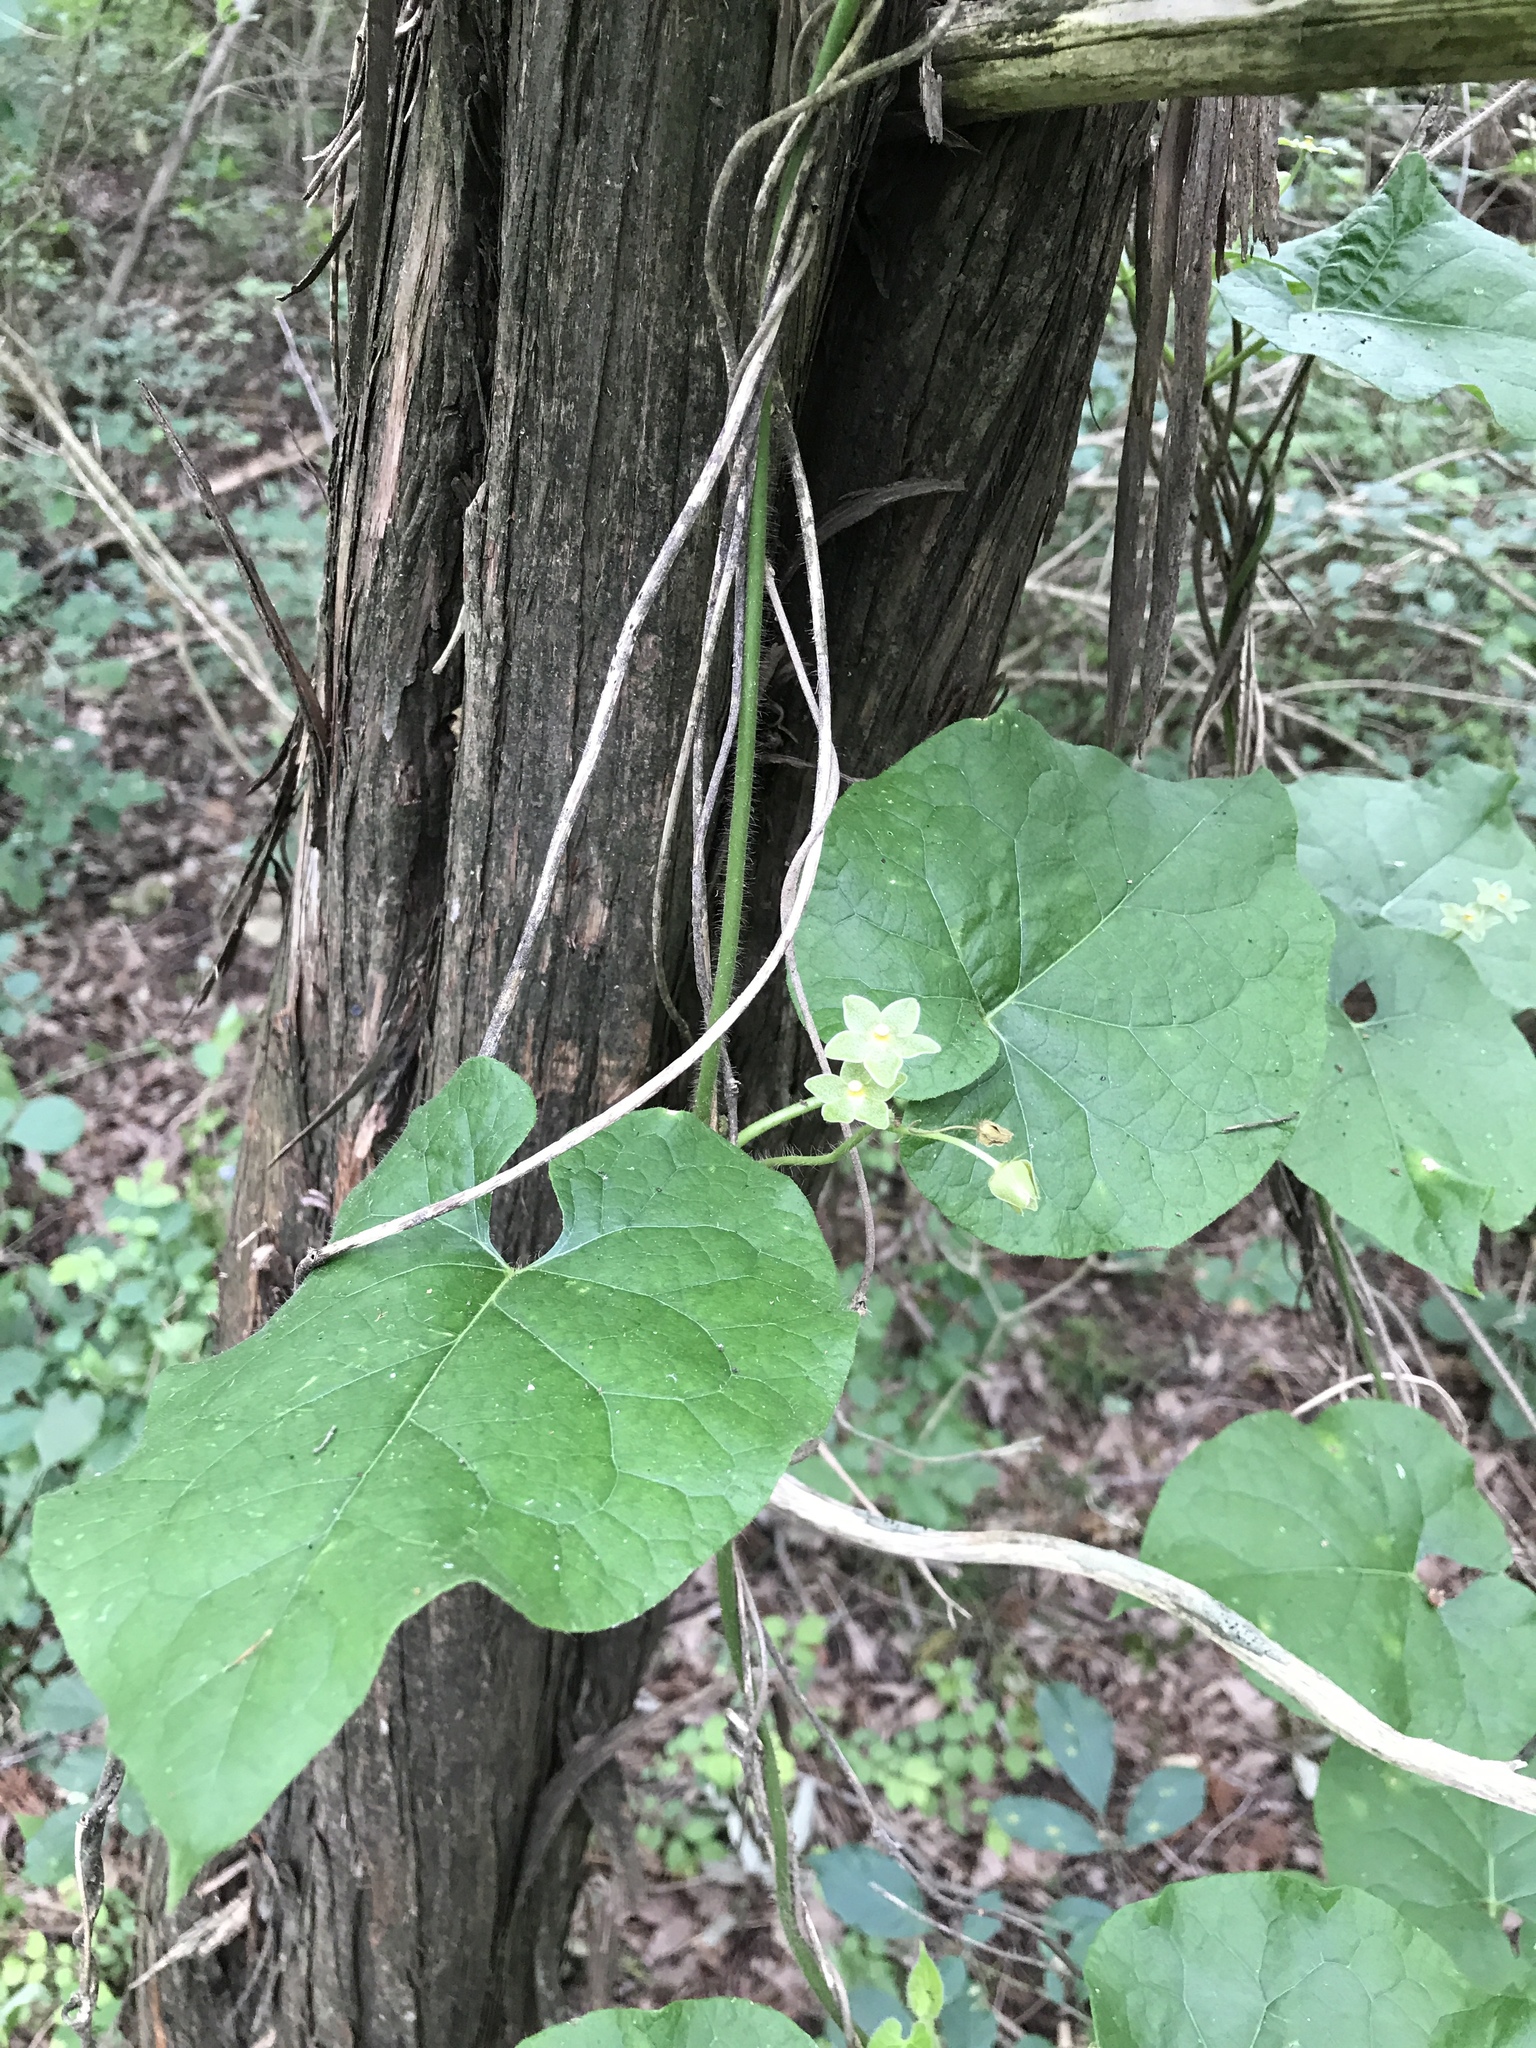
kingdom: Plantae
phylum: Tracheophyta
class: Magnoliopsida
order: Gentianales
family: Apocynaceae
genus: Dictyanthus
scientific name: Dictyanthus reticulatus
